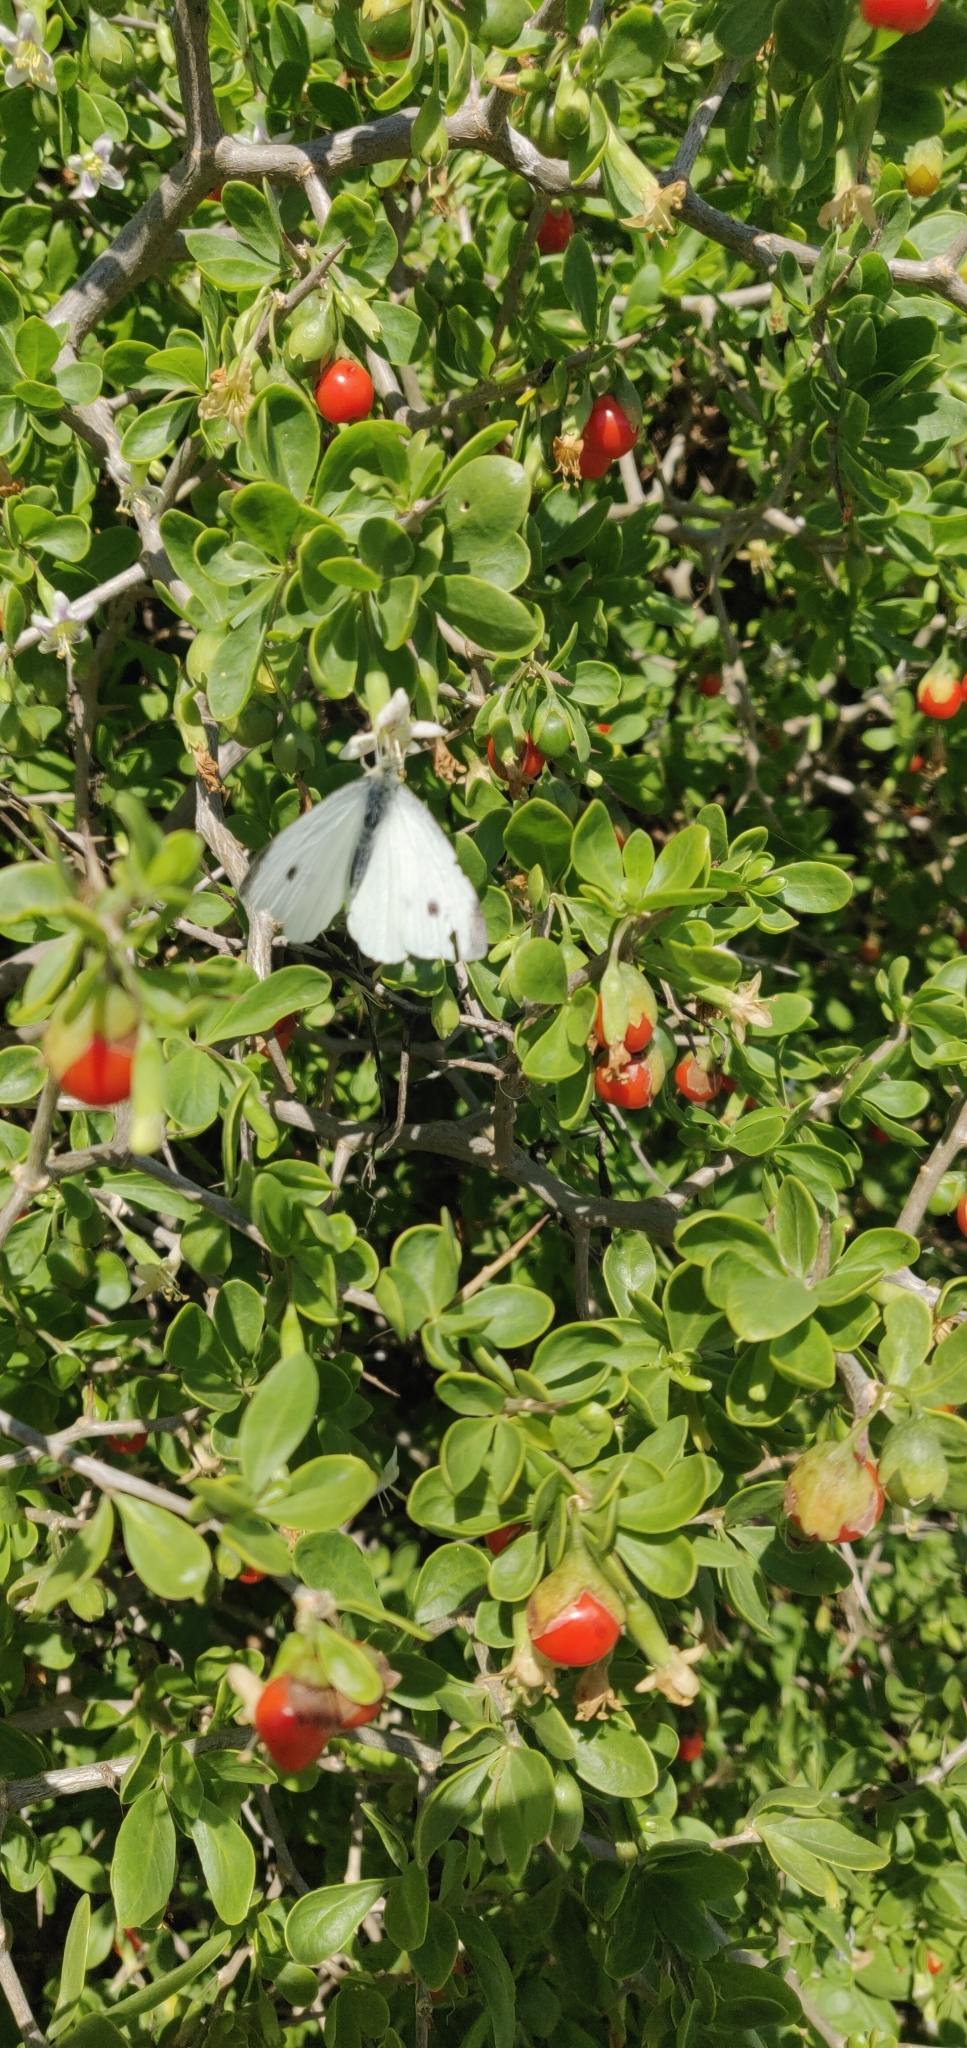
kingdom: Animalia
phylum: Arthropoda
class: Insecta
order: Lepidoptera
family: Pieridae
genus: Pieris
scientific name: Pieris rapae
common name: Small white
